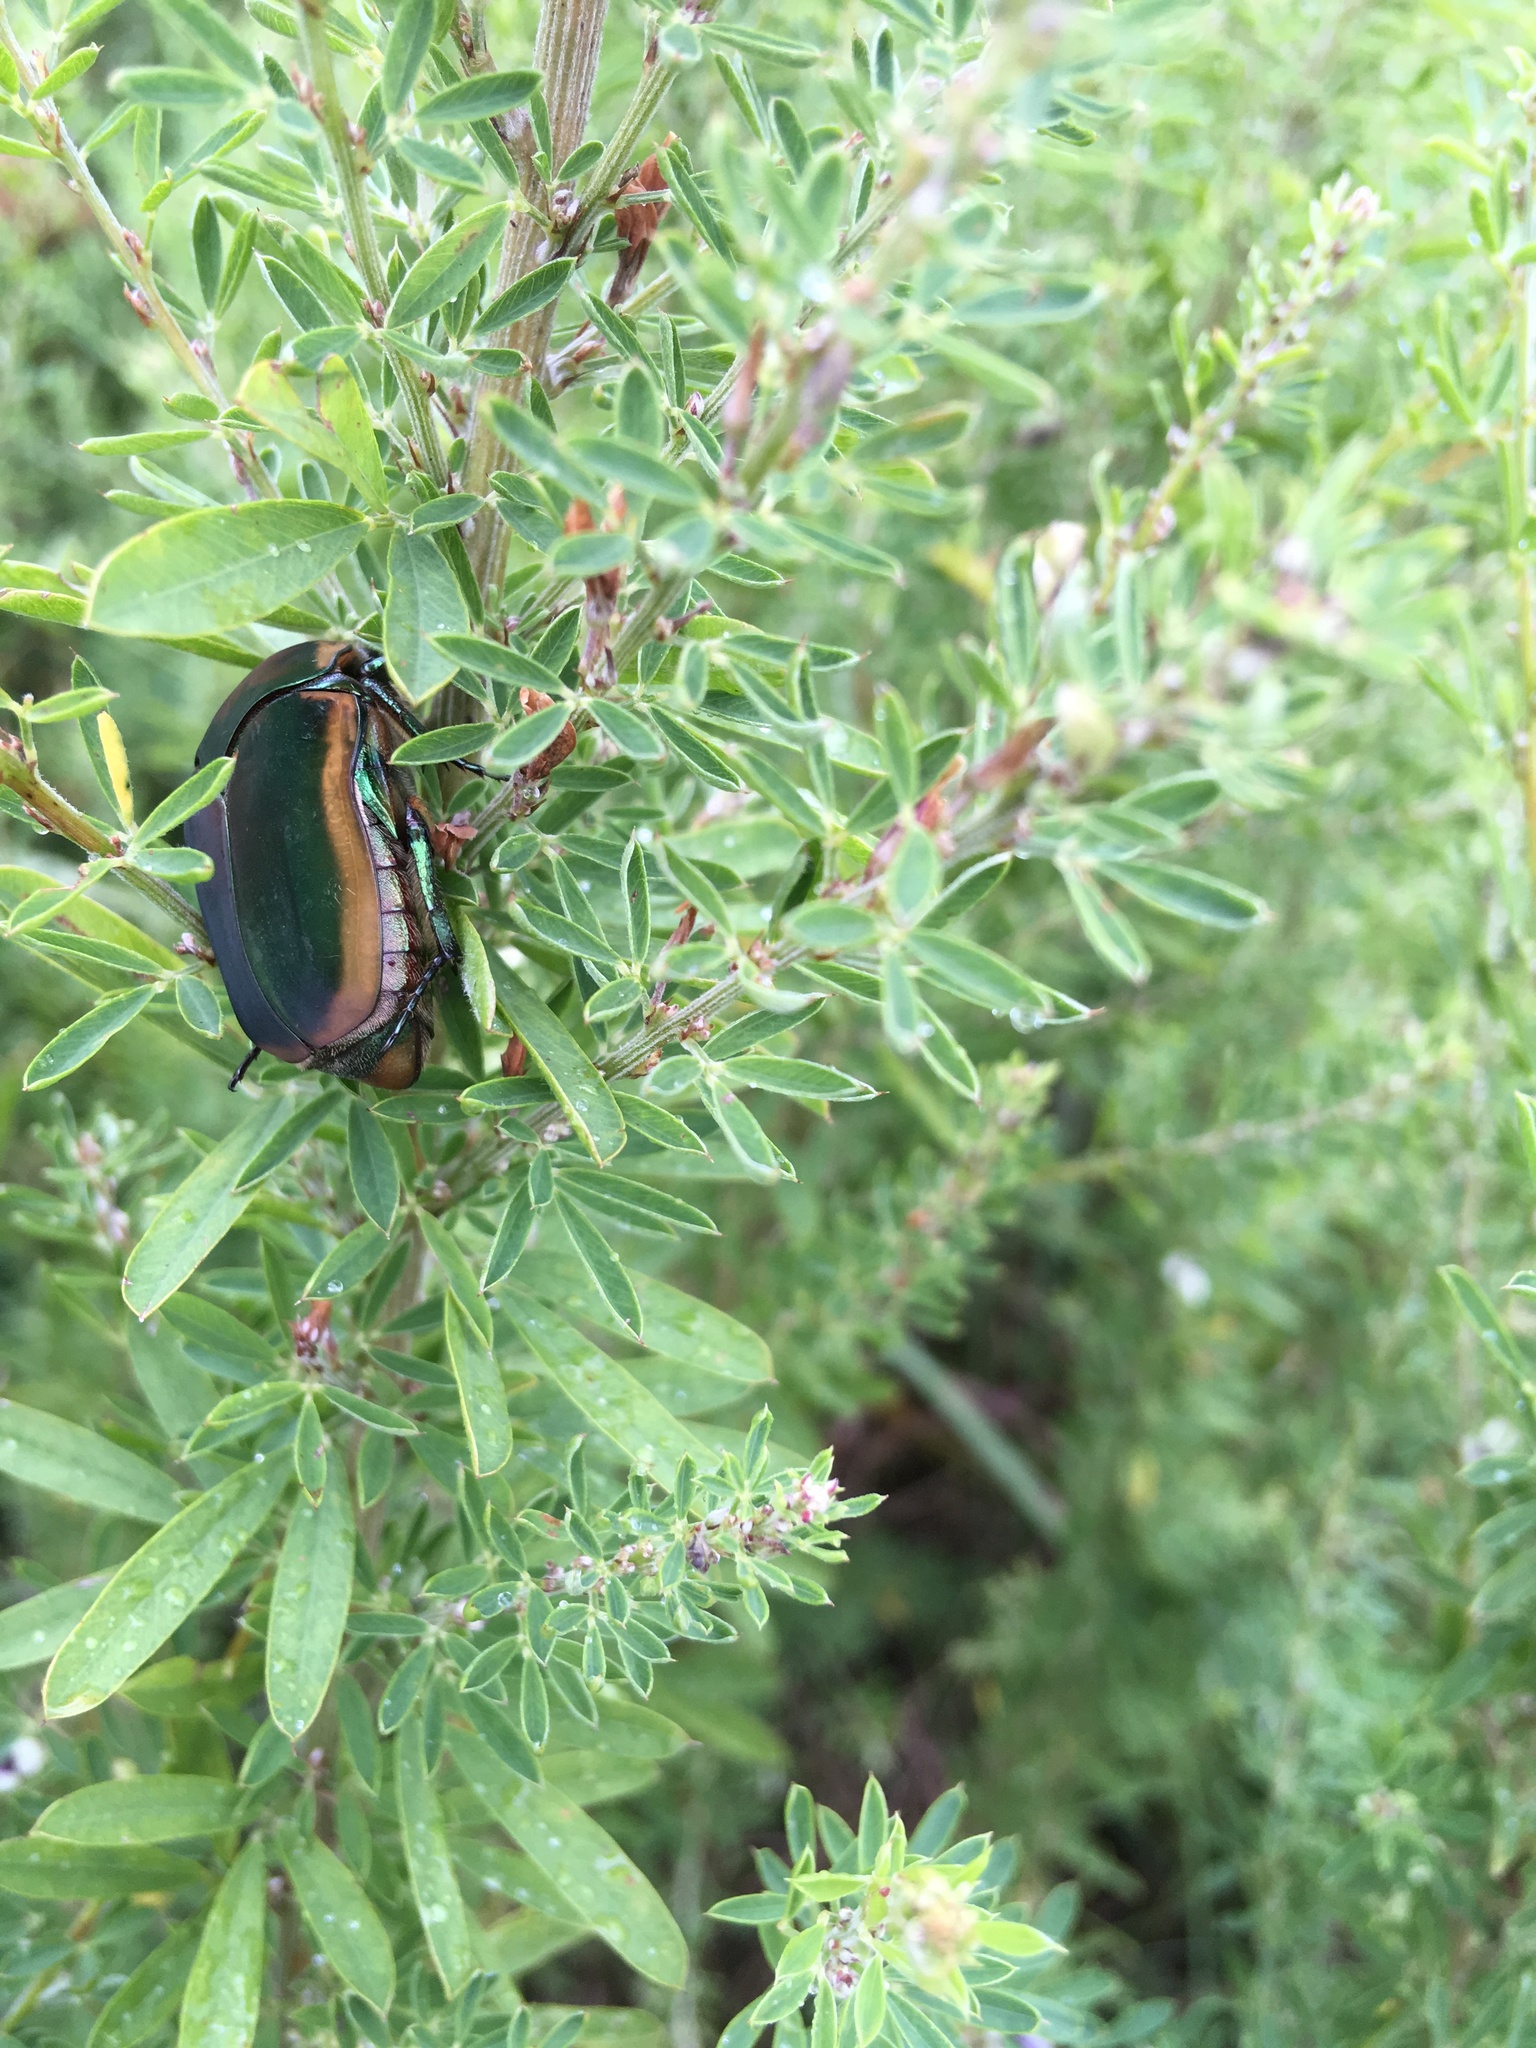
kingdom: Animalia
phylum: Arthropoda
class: Insecta
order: Coleoptera
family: Scarabaeidae
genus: Cotinis
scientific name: Cotinis nitida
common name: Common green june beetle
